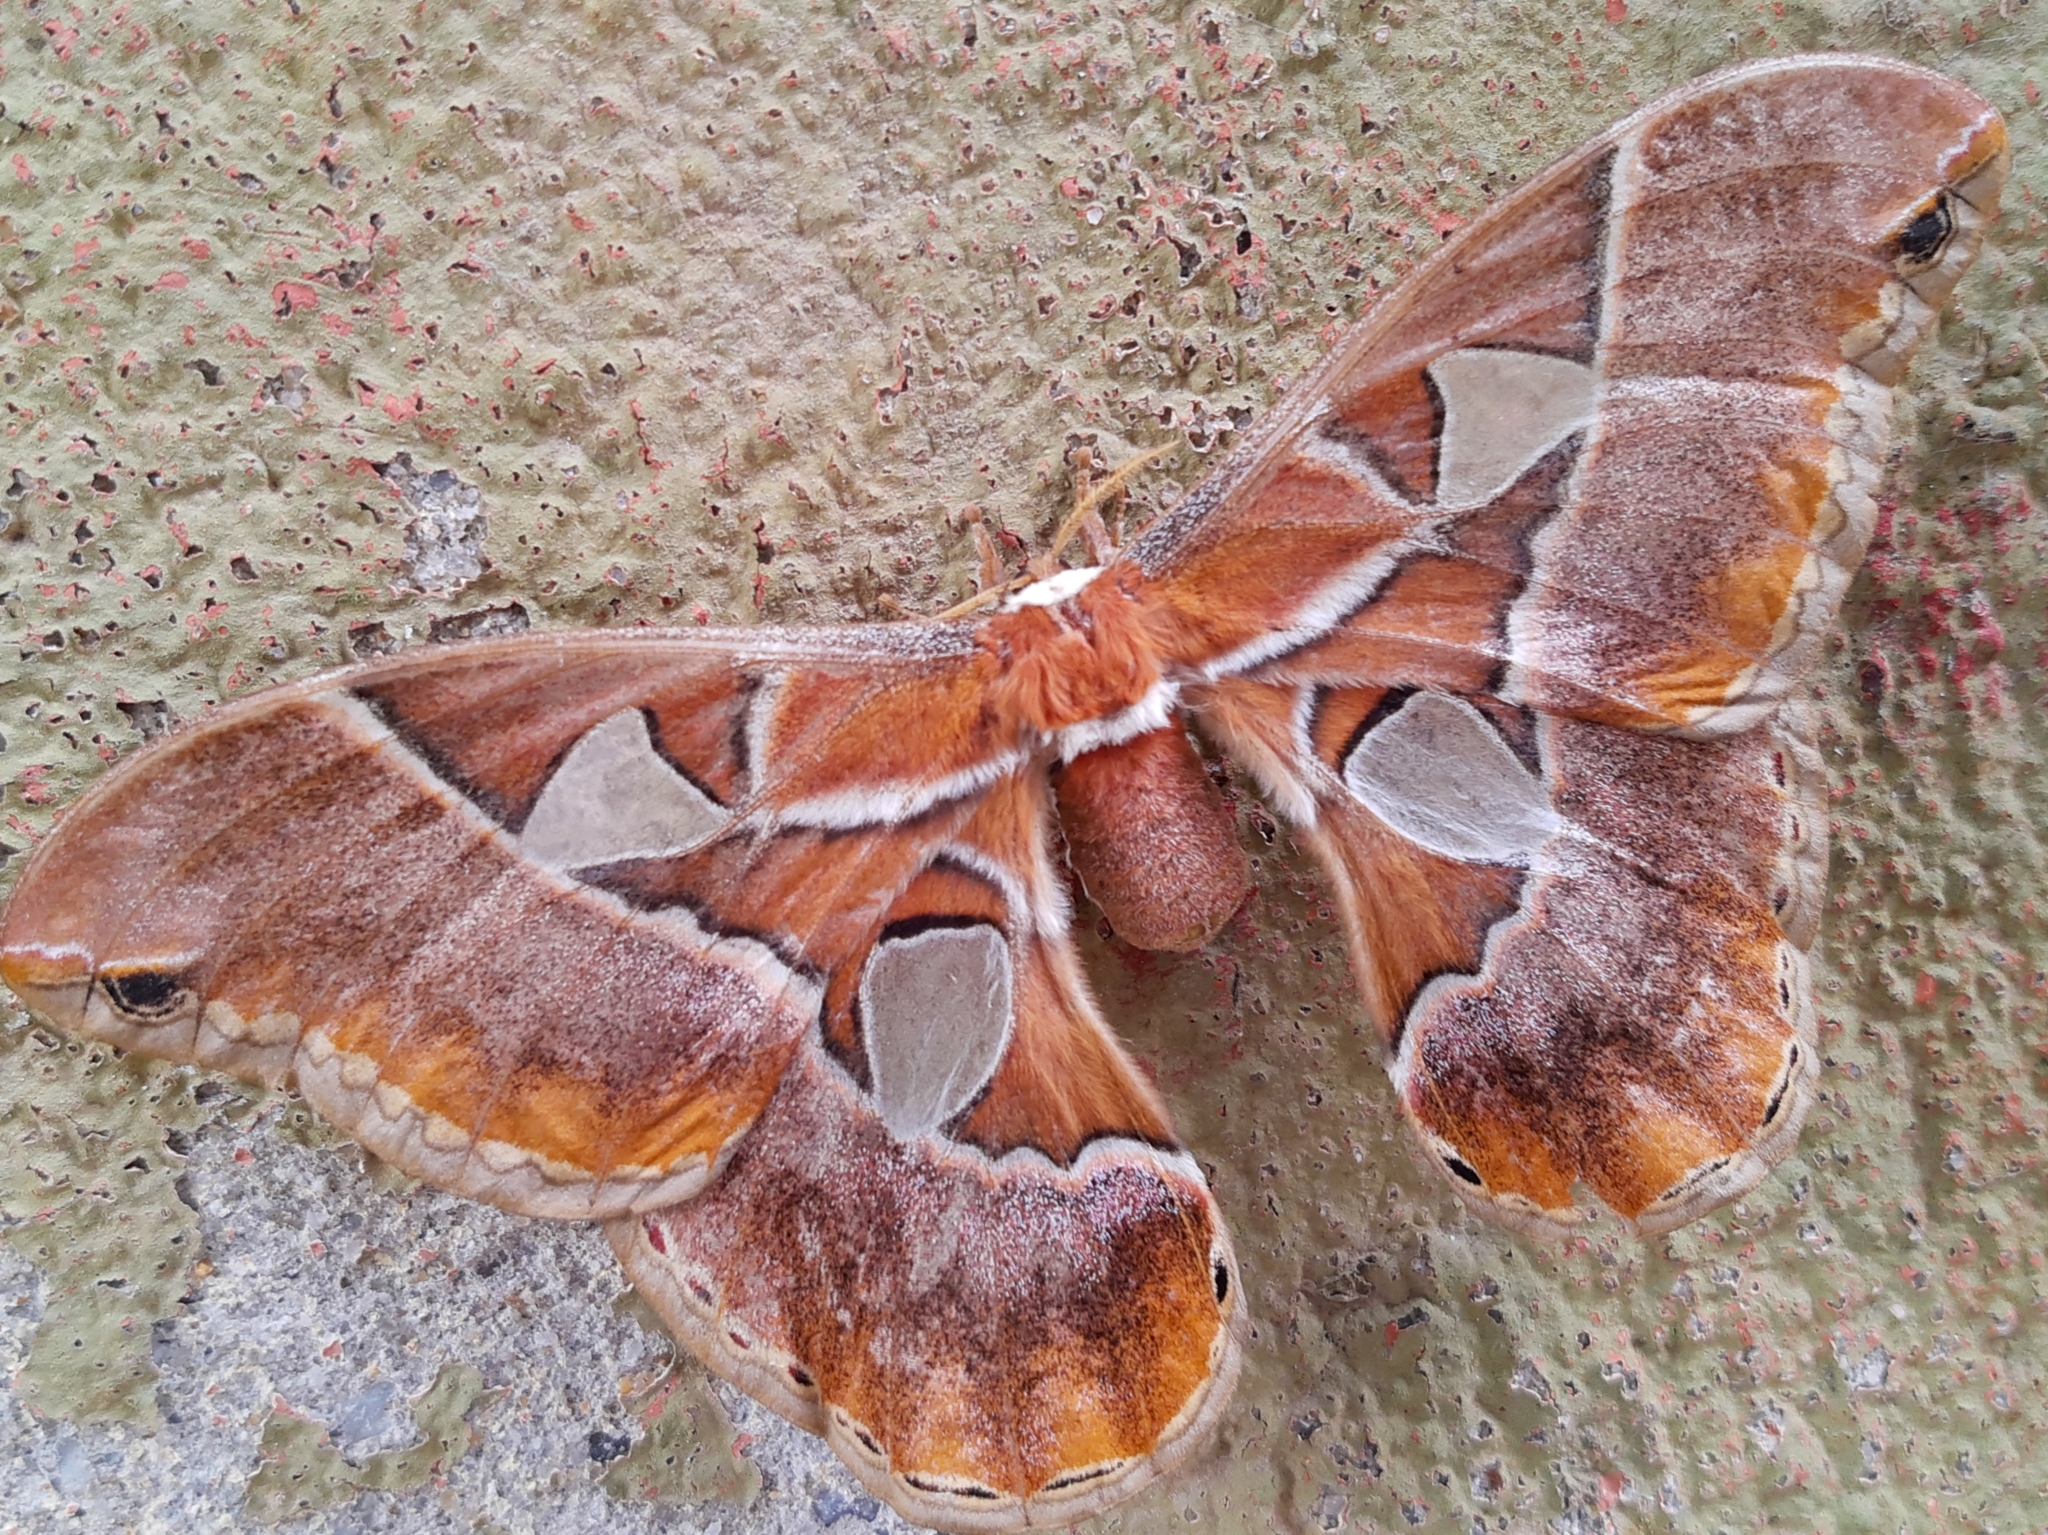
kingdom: Animalia
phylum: Arthropoda
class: Insecta
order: Lepidoptera
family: Saturniidae
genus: Rothschildia
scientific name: Rothschildia hesperus
